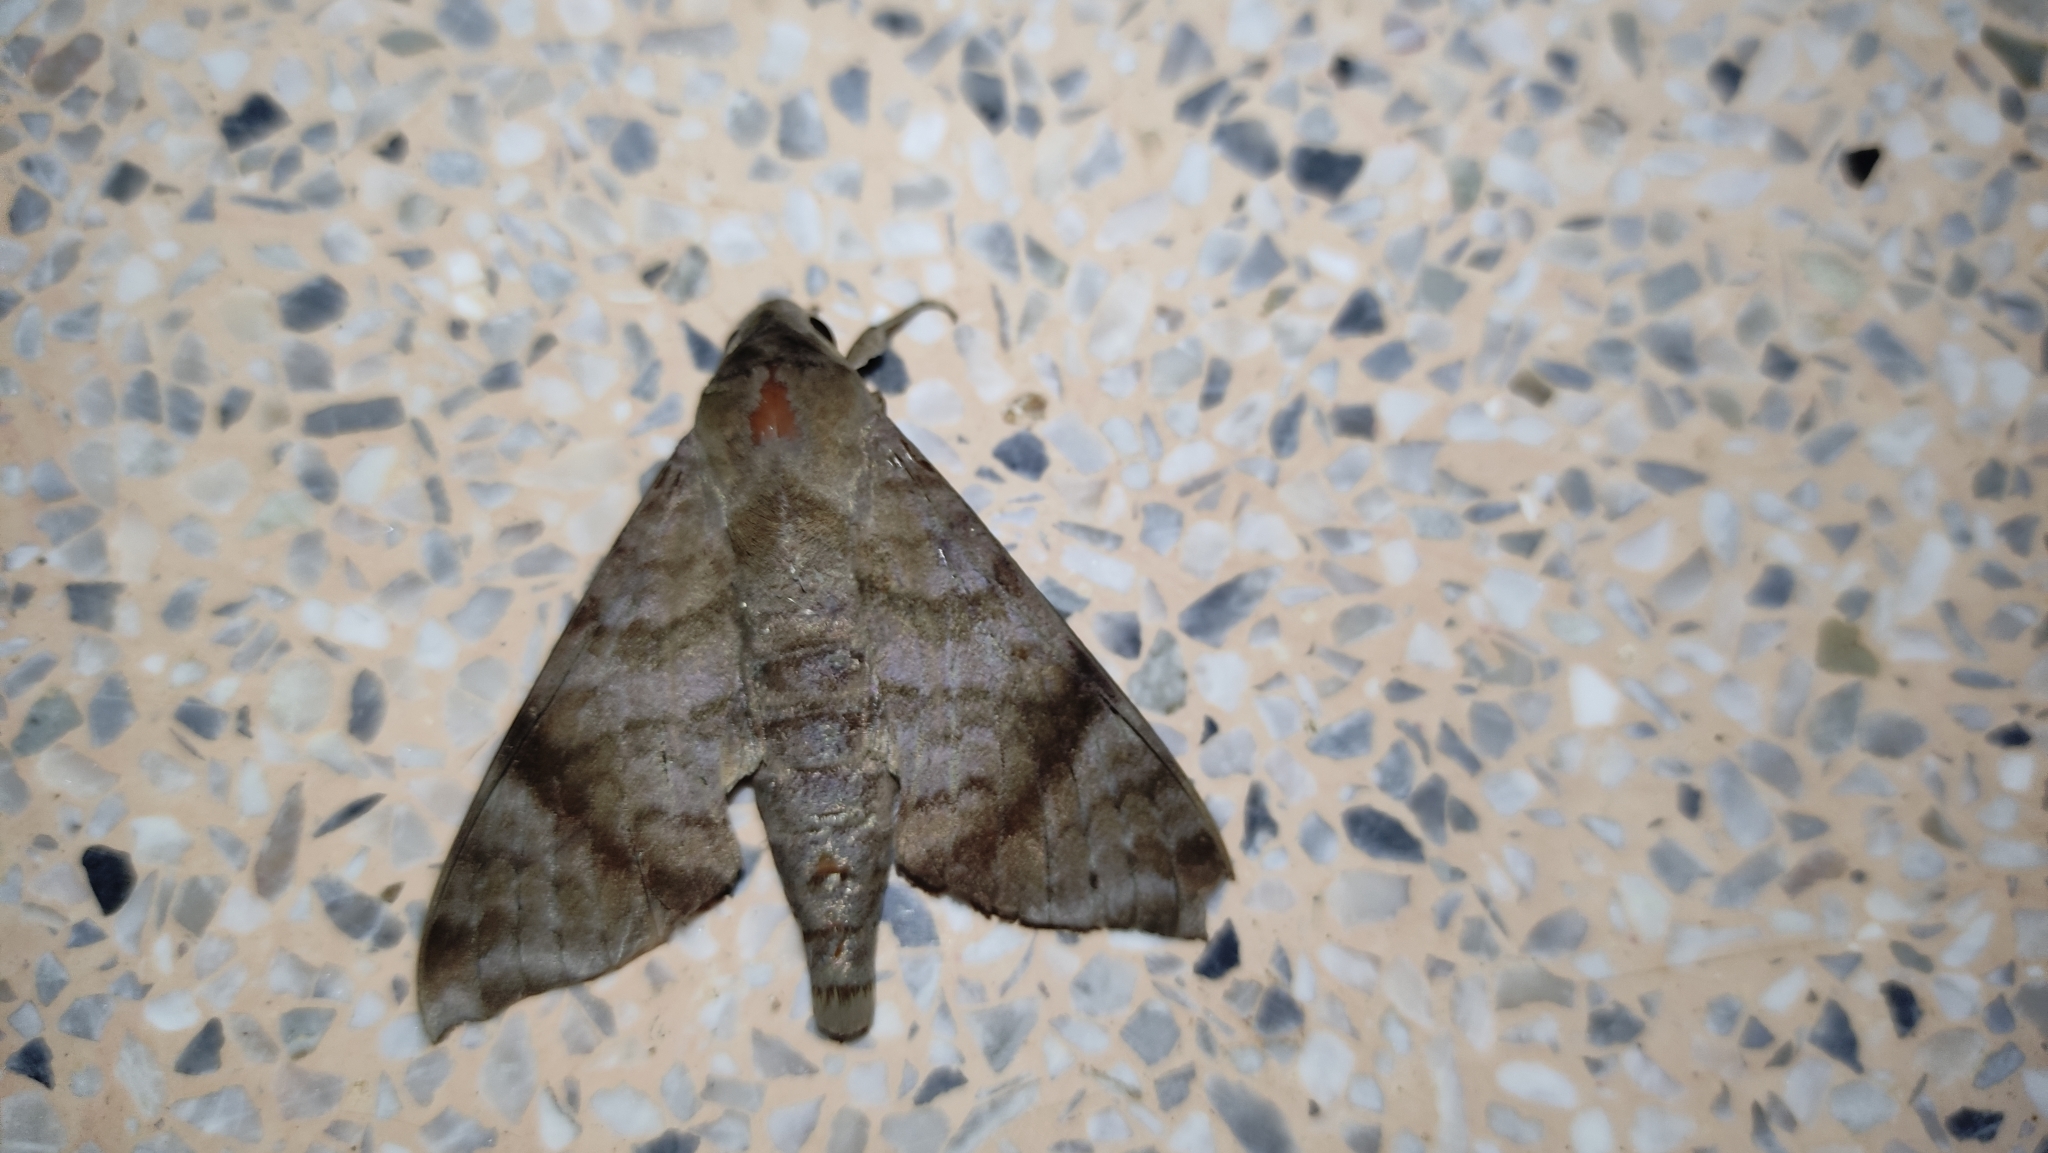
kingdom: Animalia
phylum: Arthropoda
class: Insecta
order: Lepidoptera
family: Sphingidae
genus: Acosmeryx
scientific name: Acosmeryx shervillii
